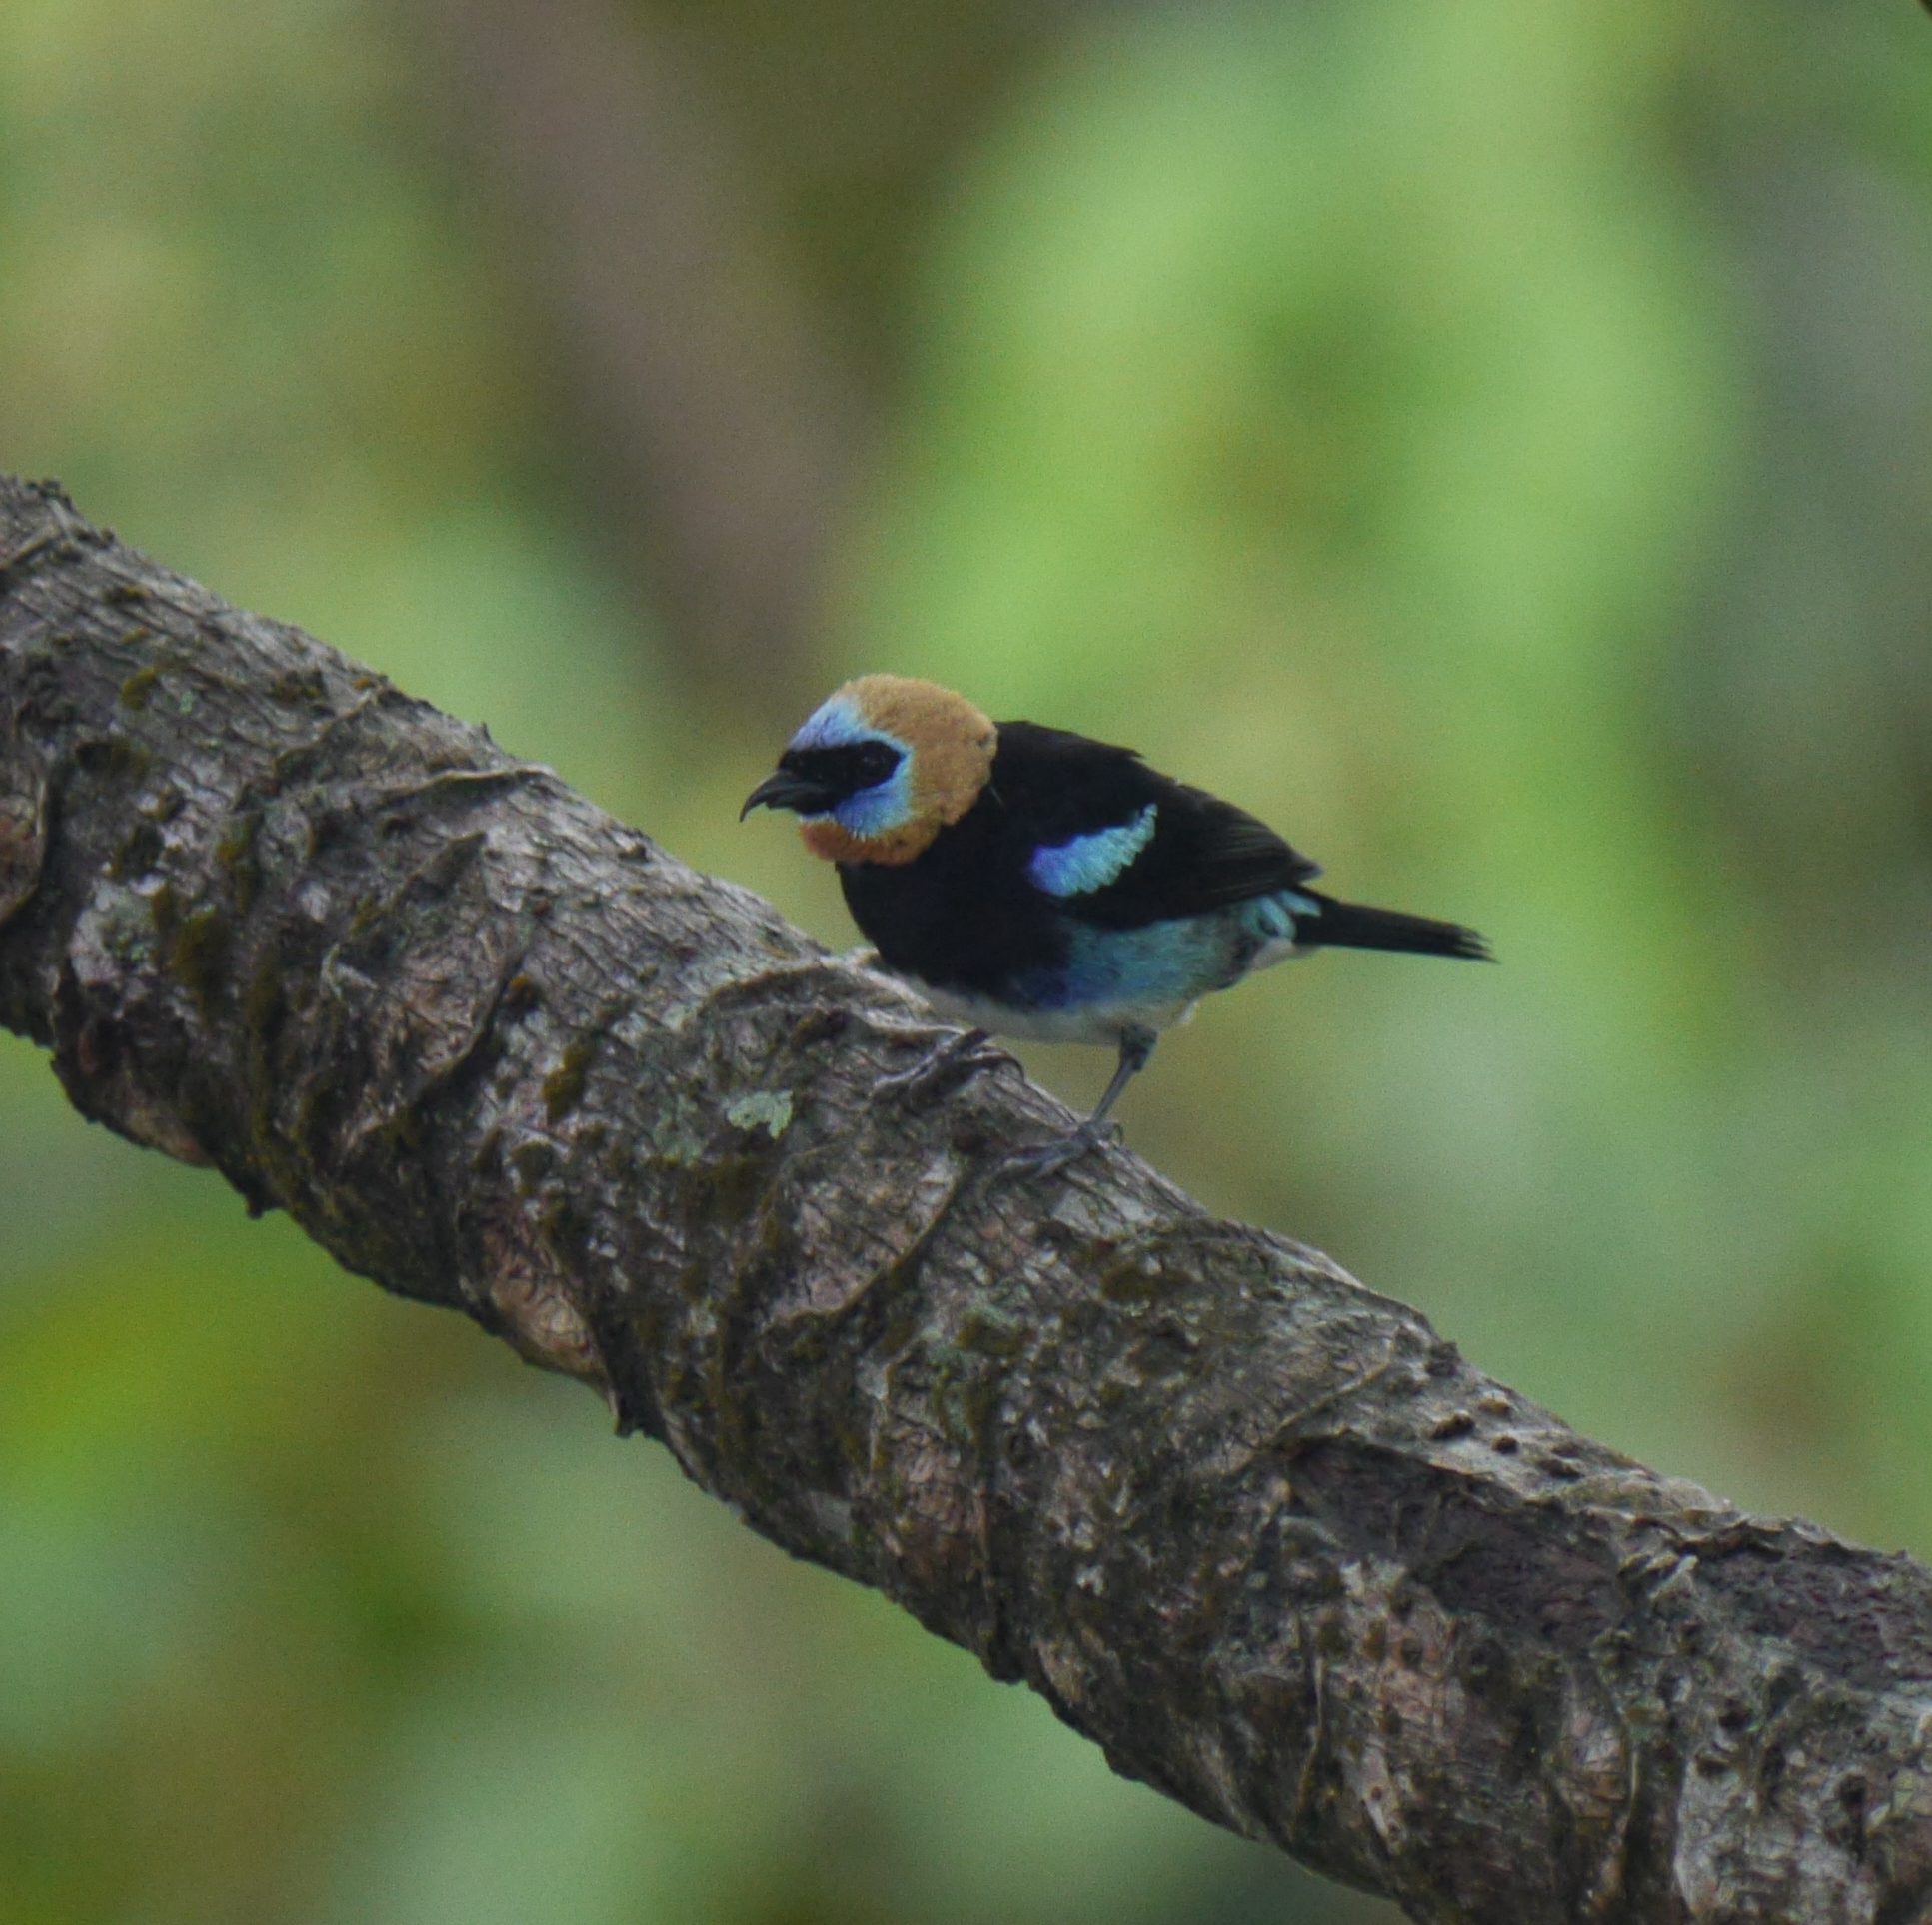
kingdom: Animalia
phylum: Chordata
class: Aves
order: Passeriformes
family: Thraupidae
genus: Stilpnia
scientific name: Stilpnia larvata
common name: Golden-hooded tanager
